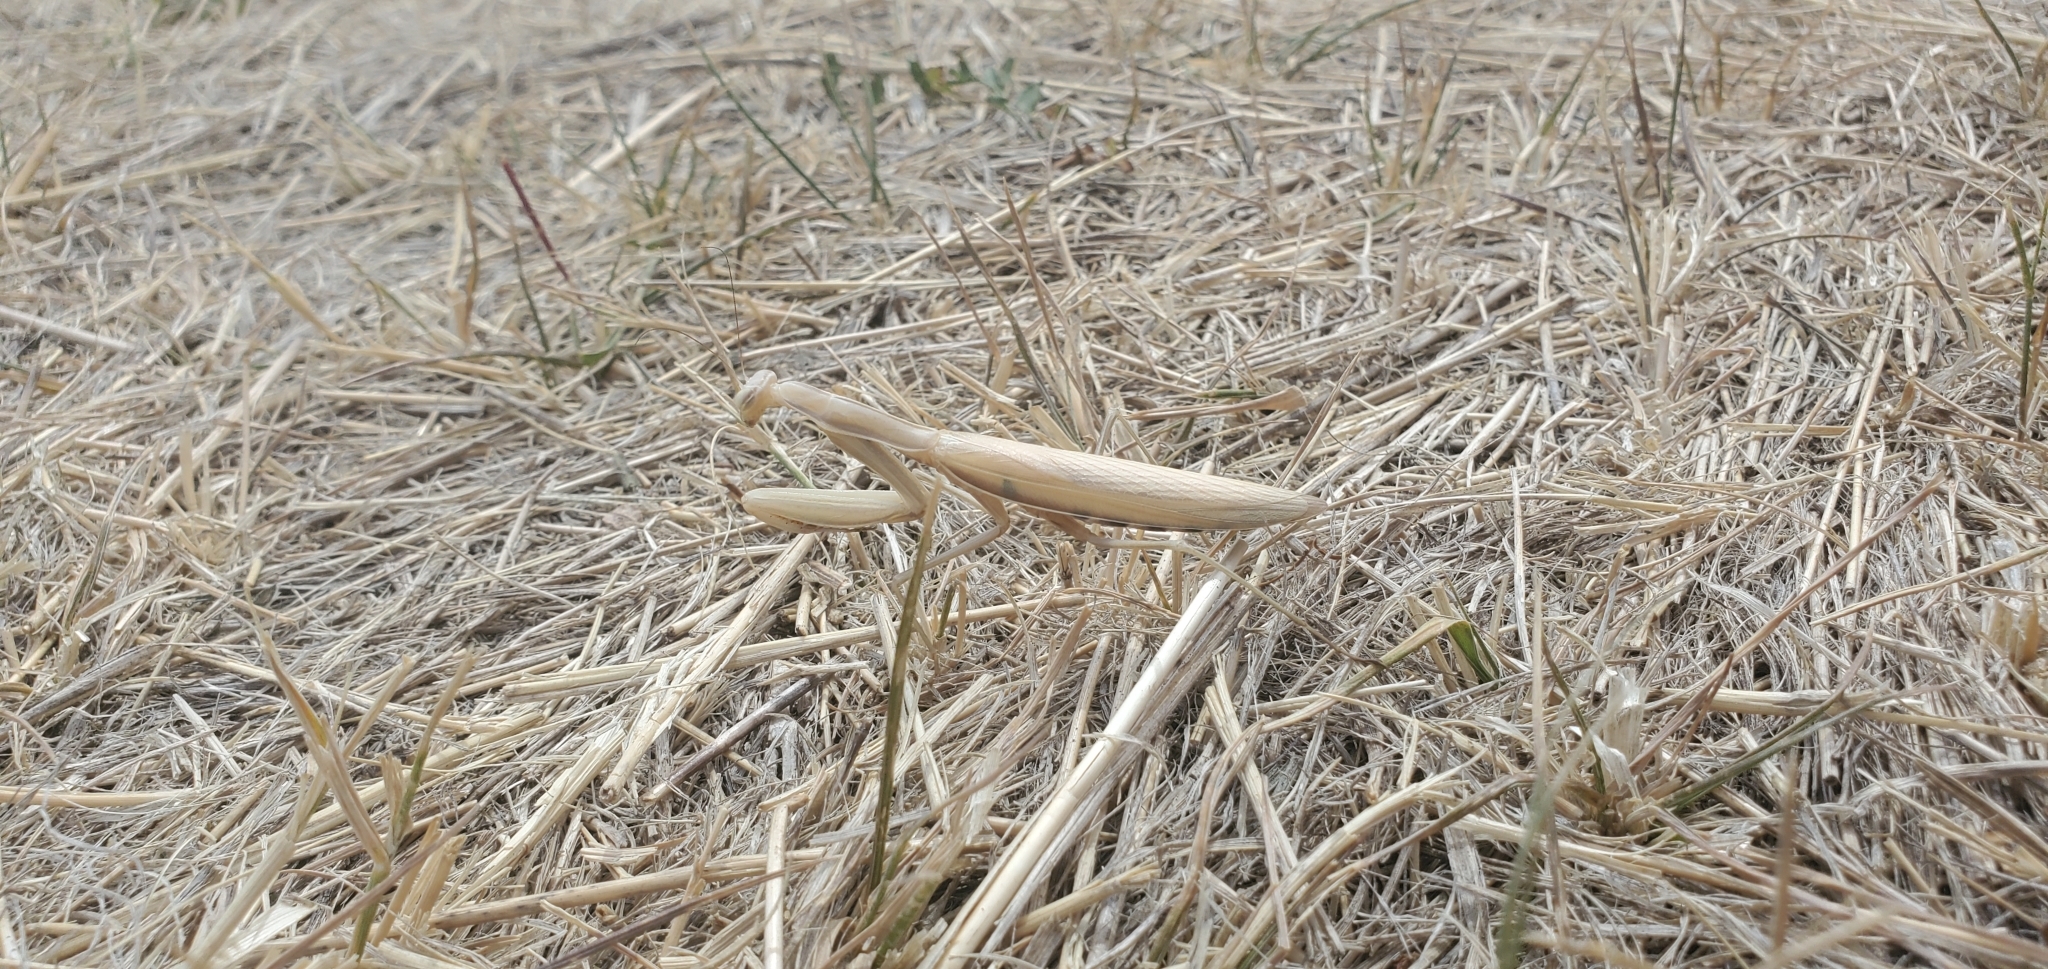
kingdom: Animalia
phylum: Arthropoda
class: Insecta
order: Mantodea
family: Mantidae
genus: Mantis
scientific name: Mantis religiosa
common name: Praying mantis
